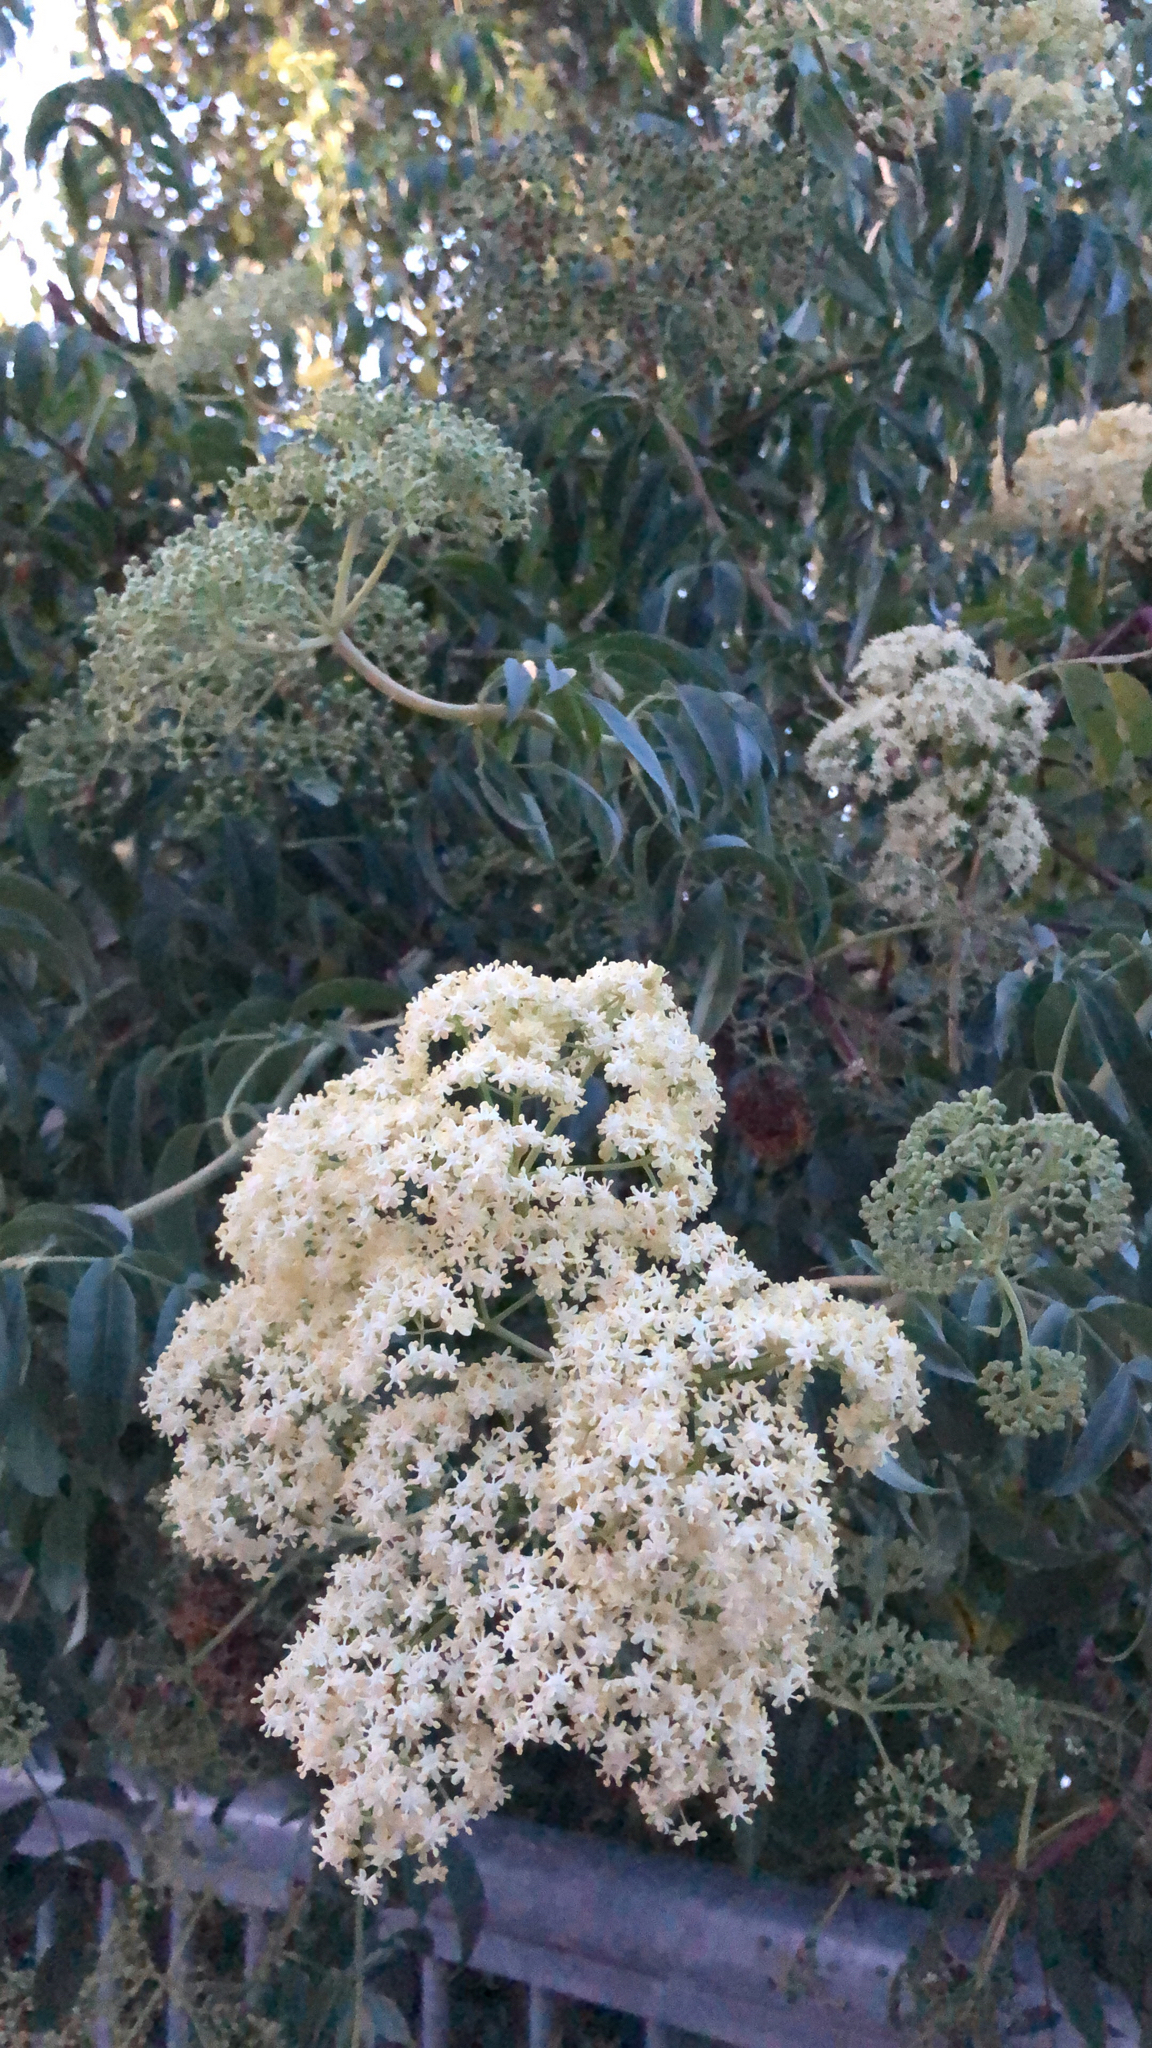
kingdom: Plantae
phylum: Tracheophyta
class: Magnoliopsida
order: Dipsacales
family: Viburnaceae
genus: Sambucus
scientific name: Sambucus cerulea
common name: Blue elder
